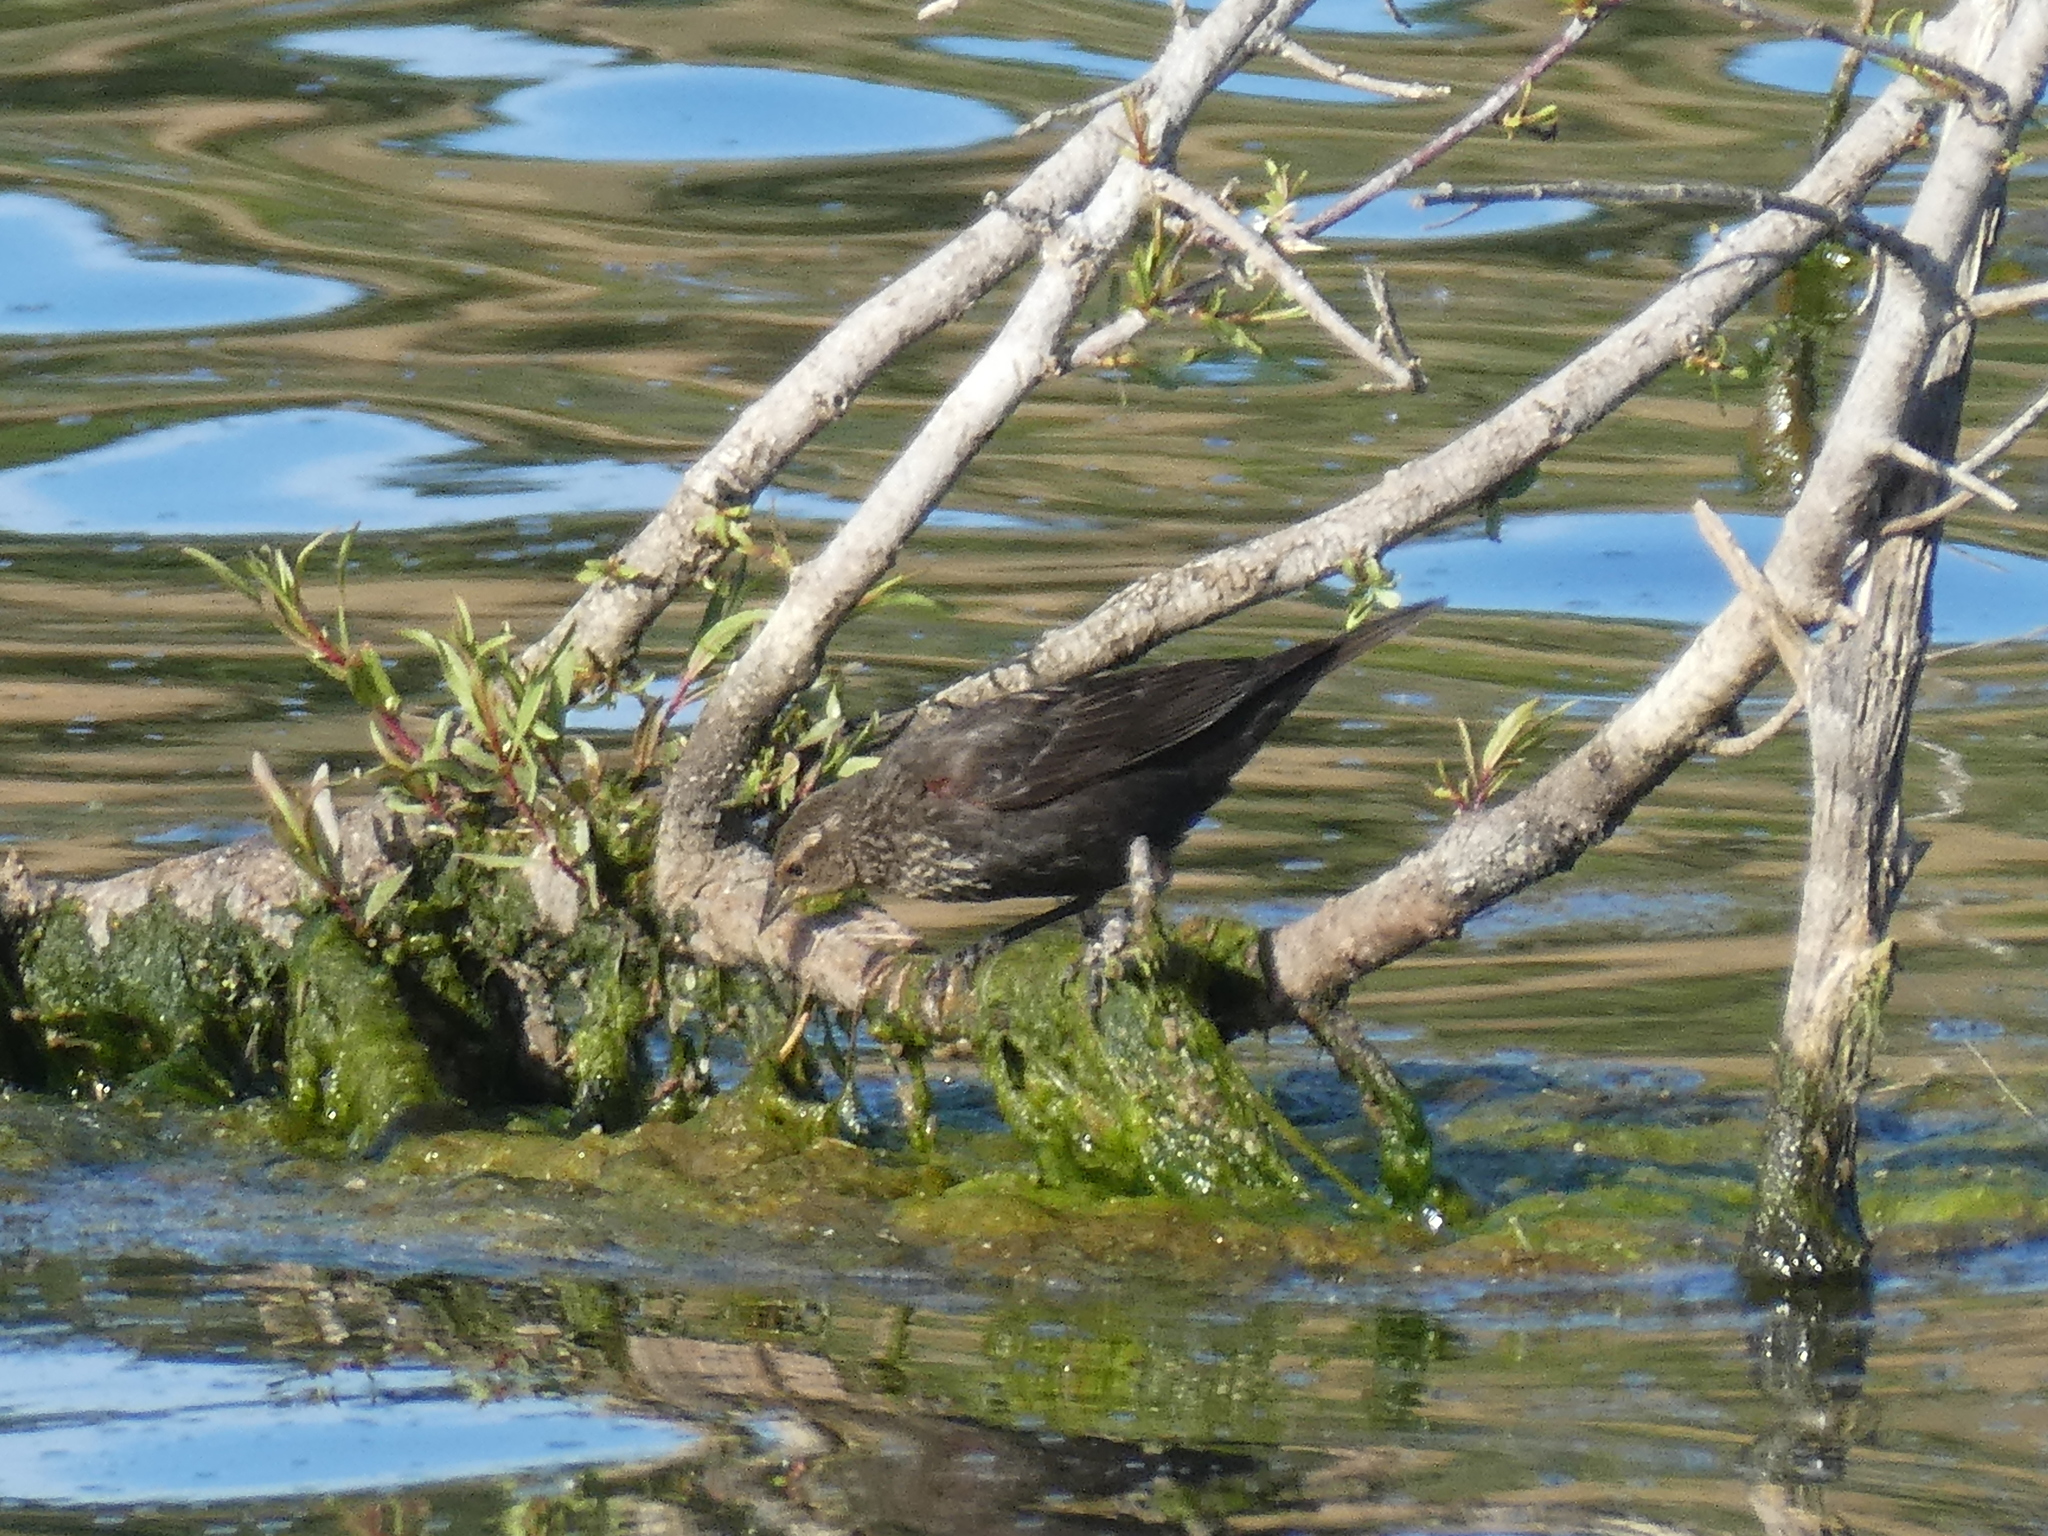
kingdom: Animalia
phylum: Chordata
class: Aves
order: Passeriformes
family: Icteridae
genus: Molothrus
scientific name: Molothrus ater
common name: Brown-headed cowbird
